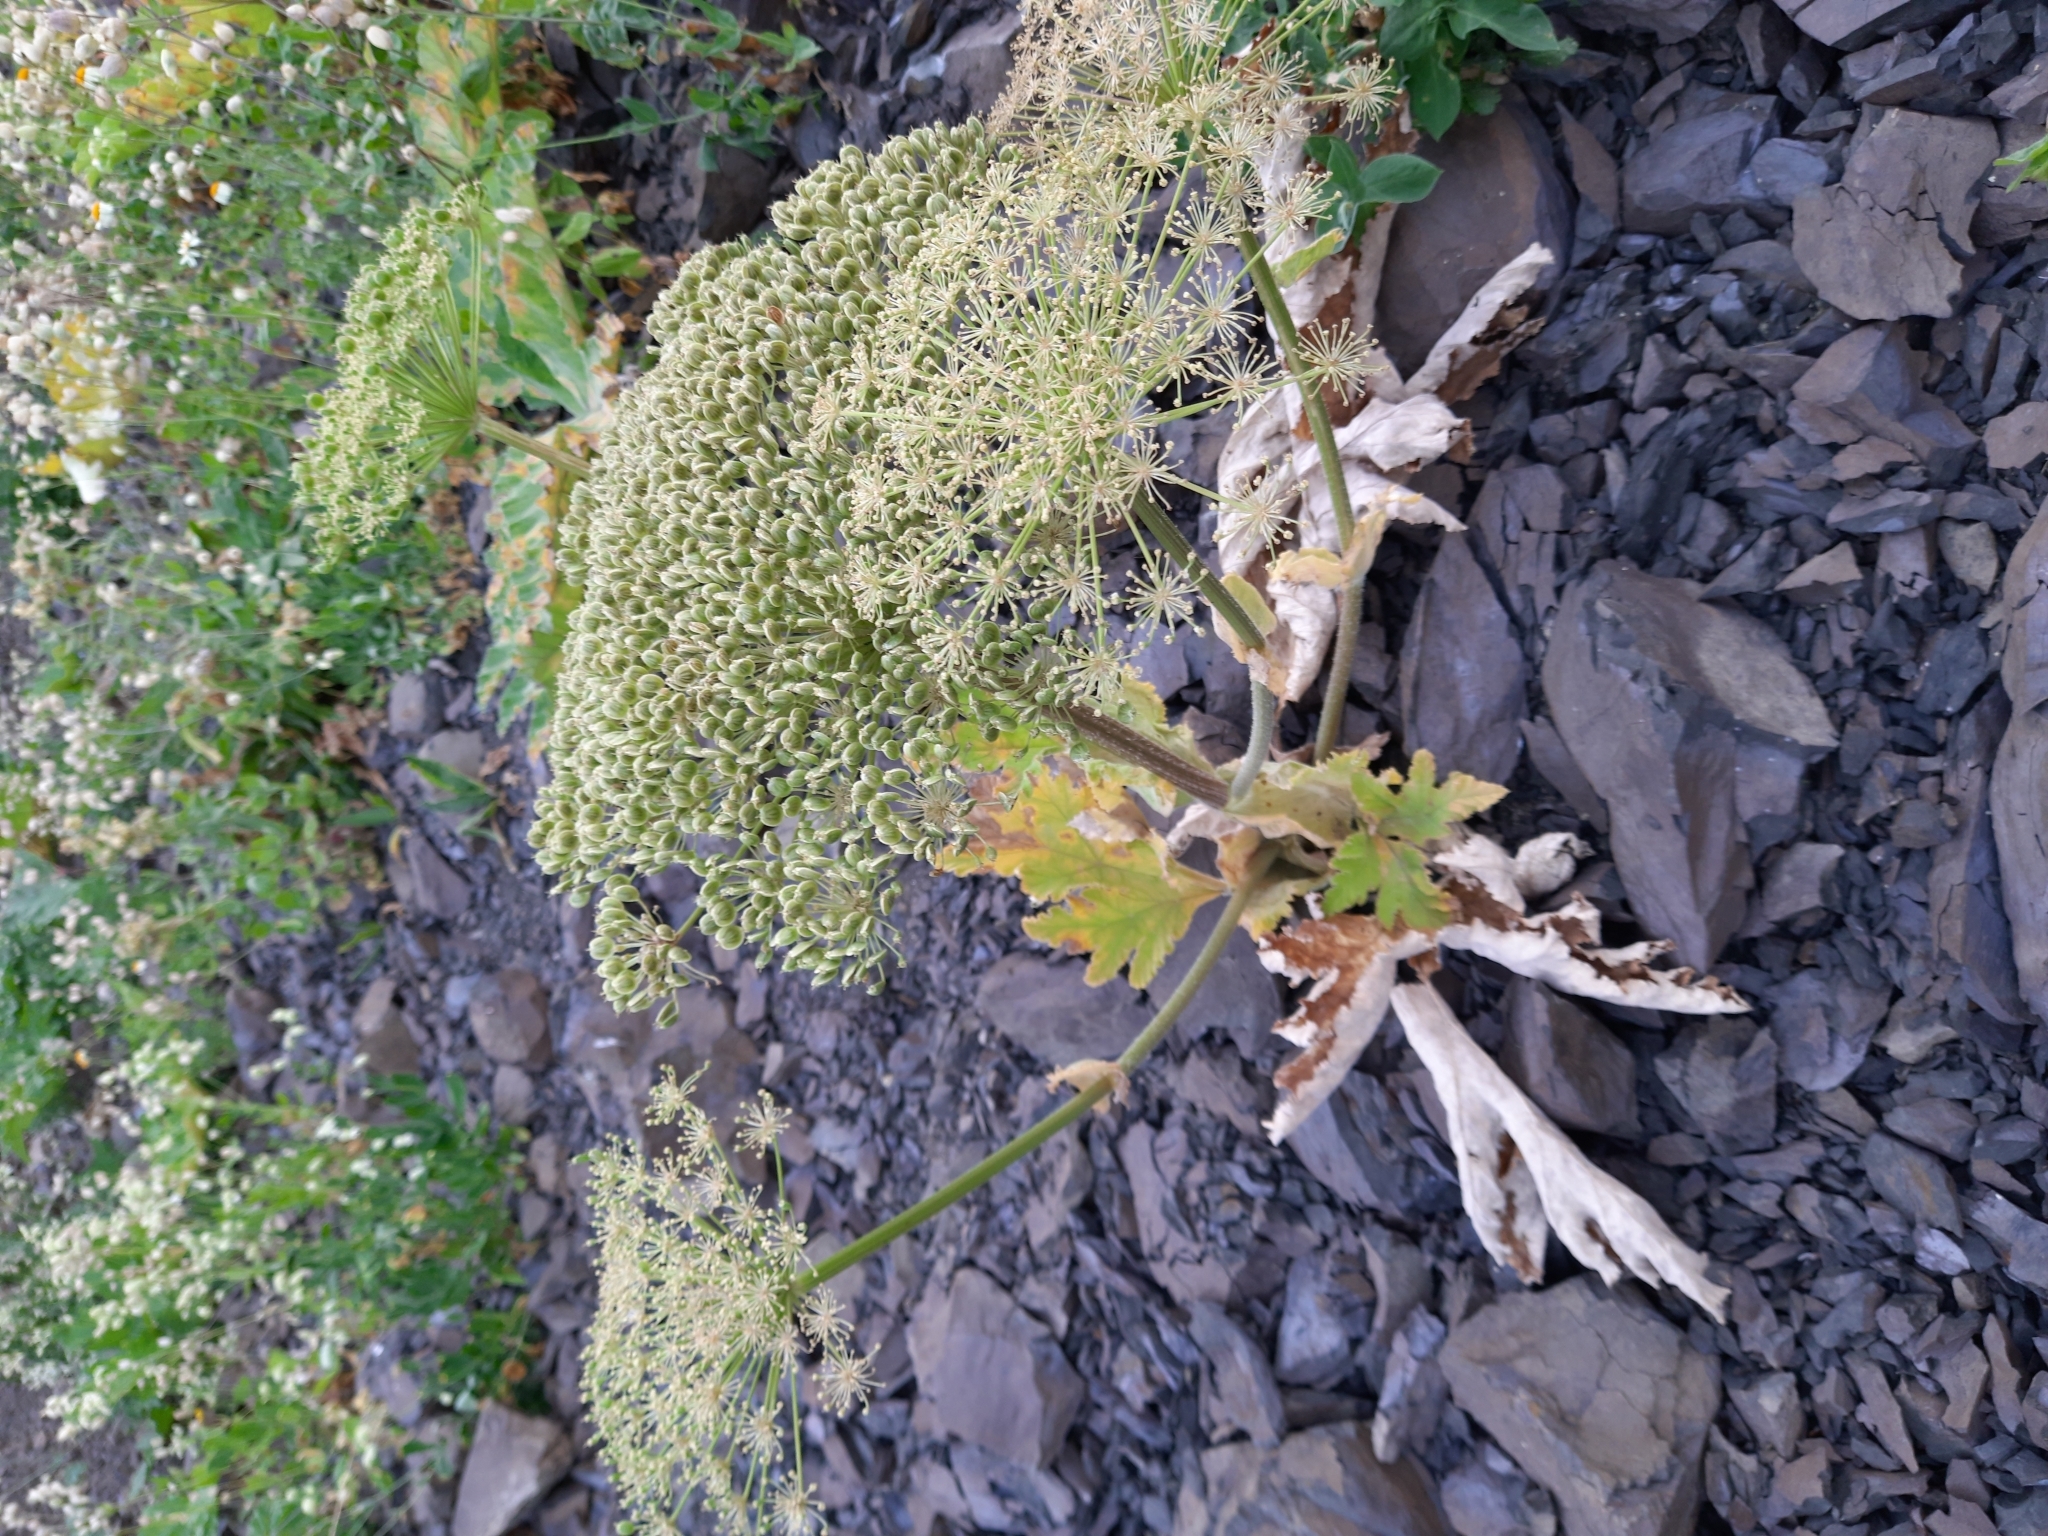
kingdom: Plantae
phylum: Tracheophyta
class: Magnoliopsida
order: Apiales
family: Apiaceae
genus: Heracleum
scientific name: Heracleum leskovii
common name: Leskov's cow-parsnip
